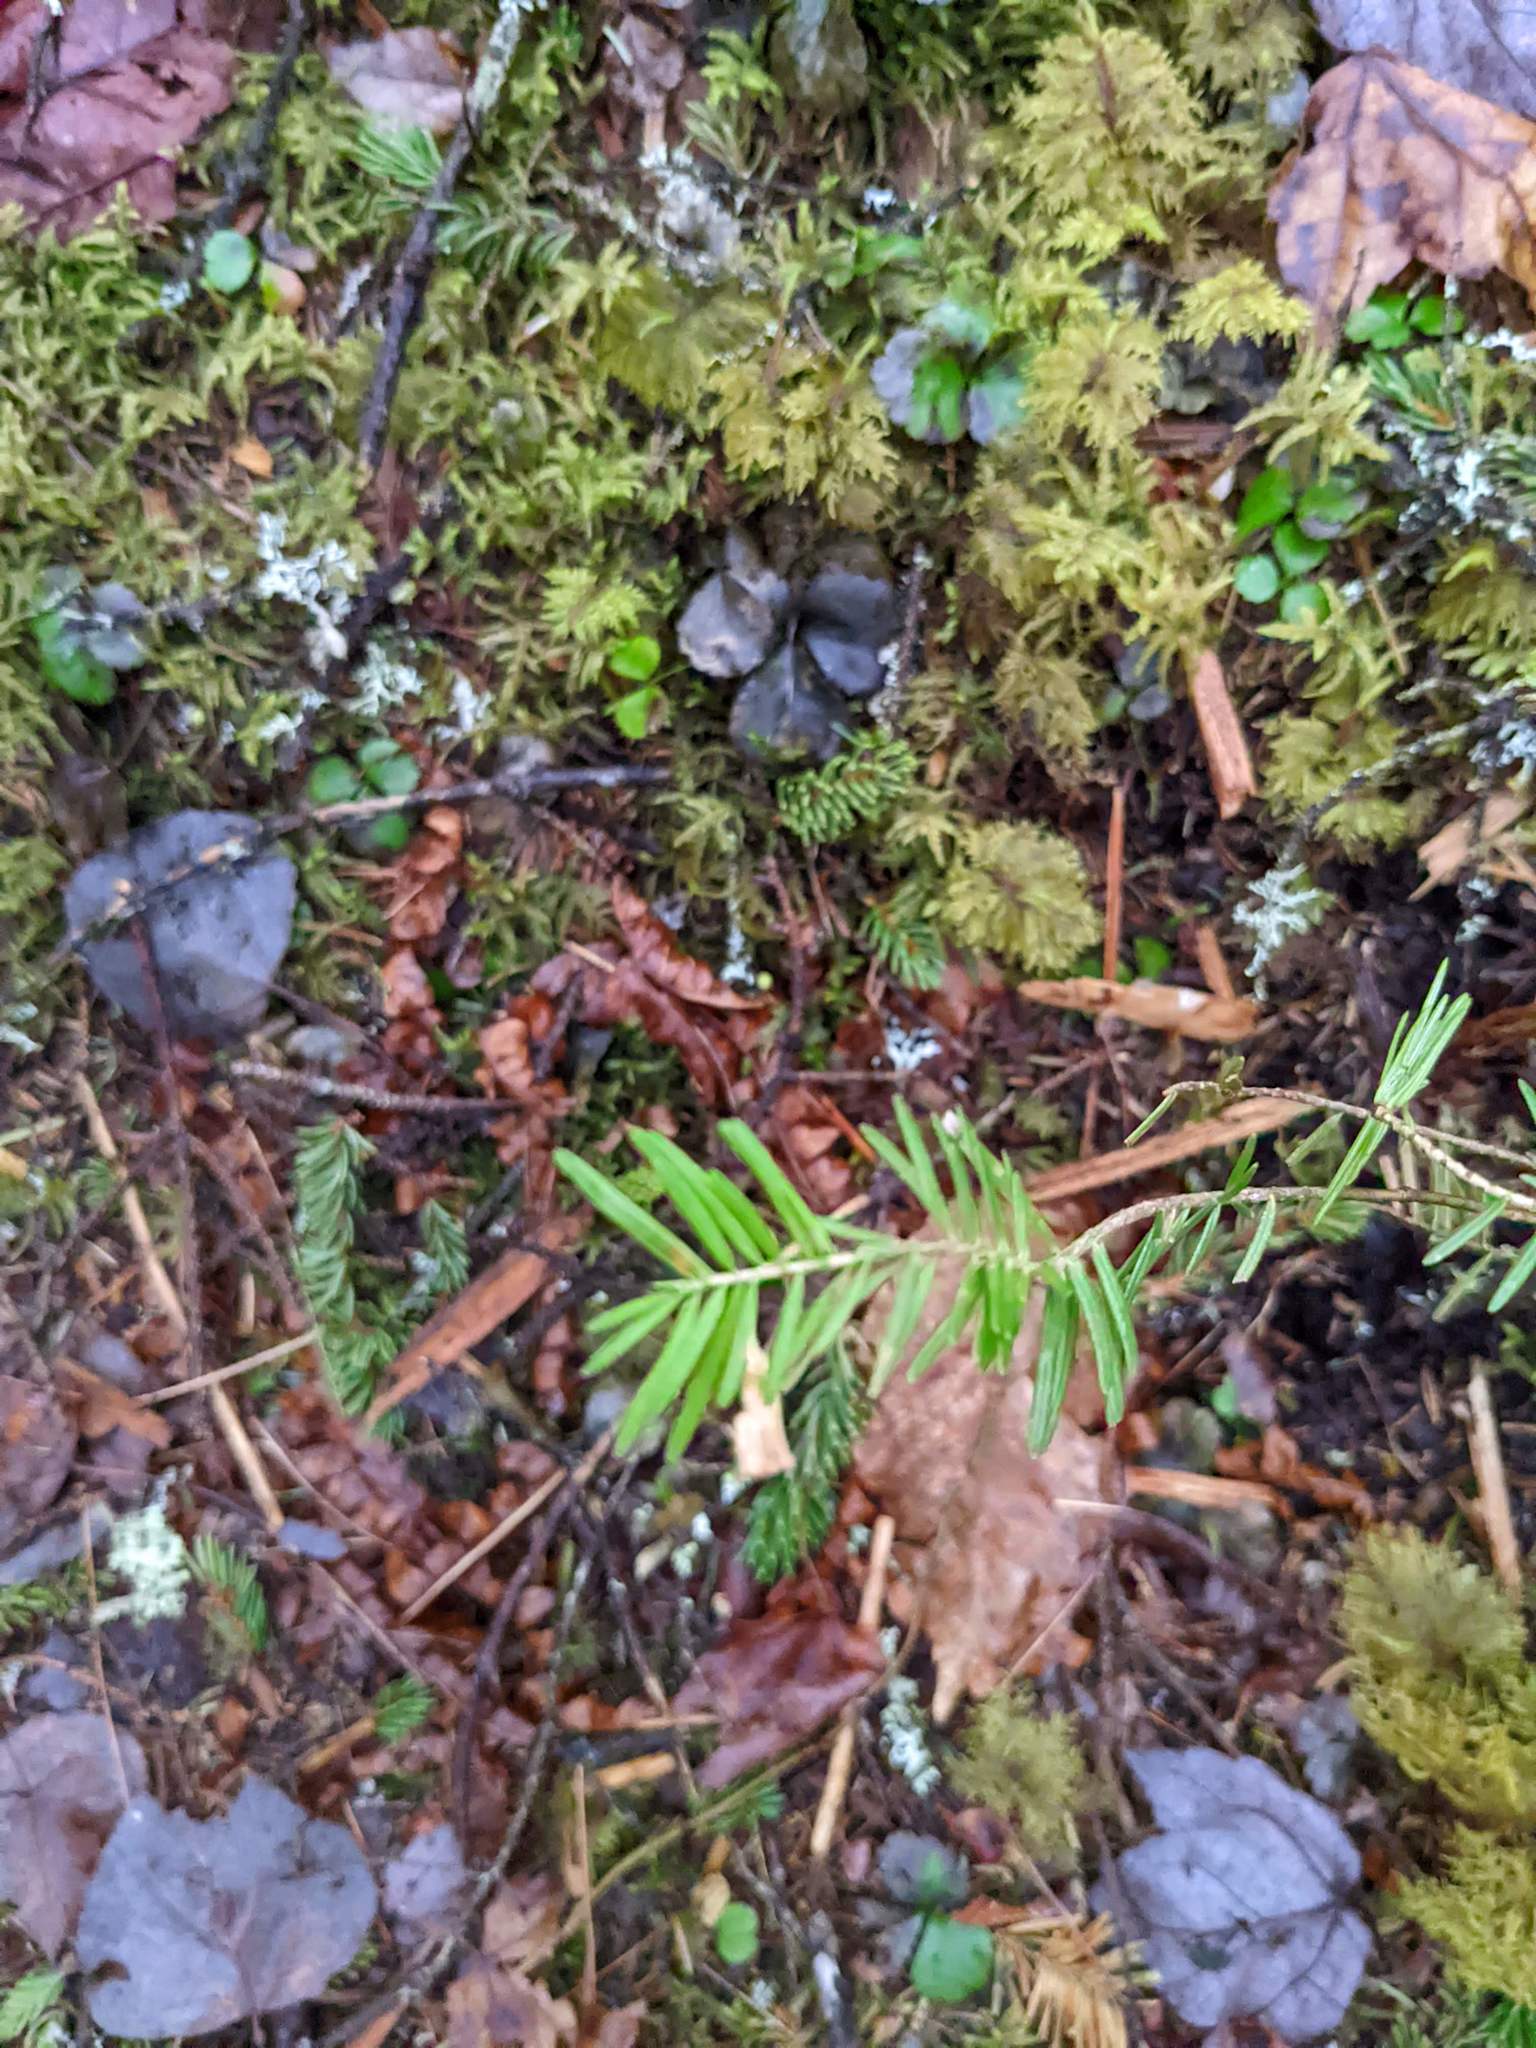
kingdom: Plantae
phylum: Tracheophyta
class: Pinopsida
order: Pinales
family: Pinaceae
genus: Abies
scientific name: Abies balsamea
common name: Balsam fir
